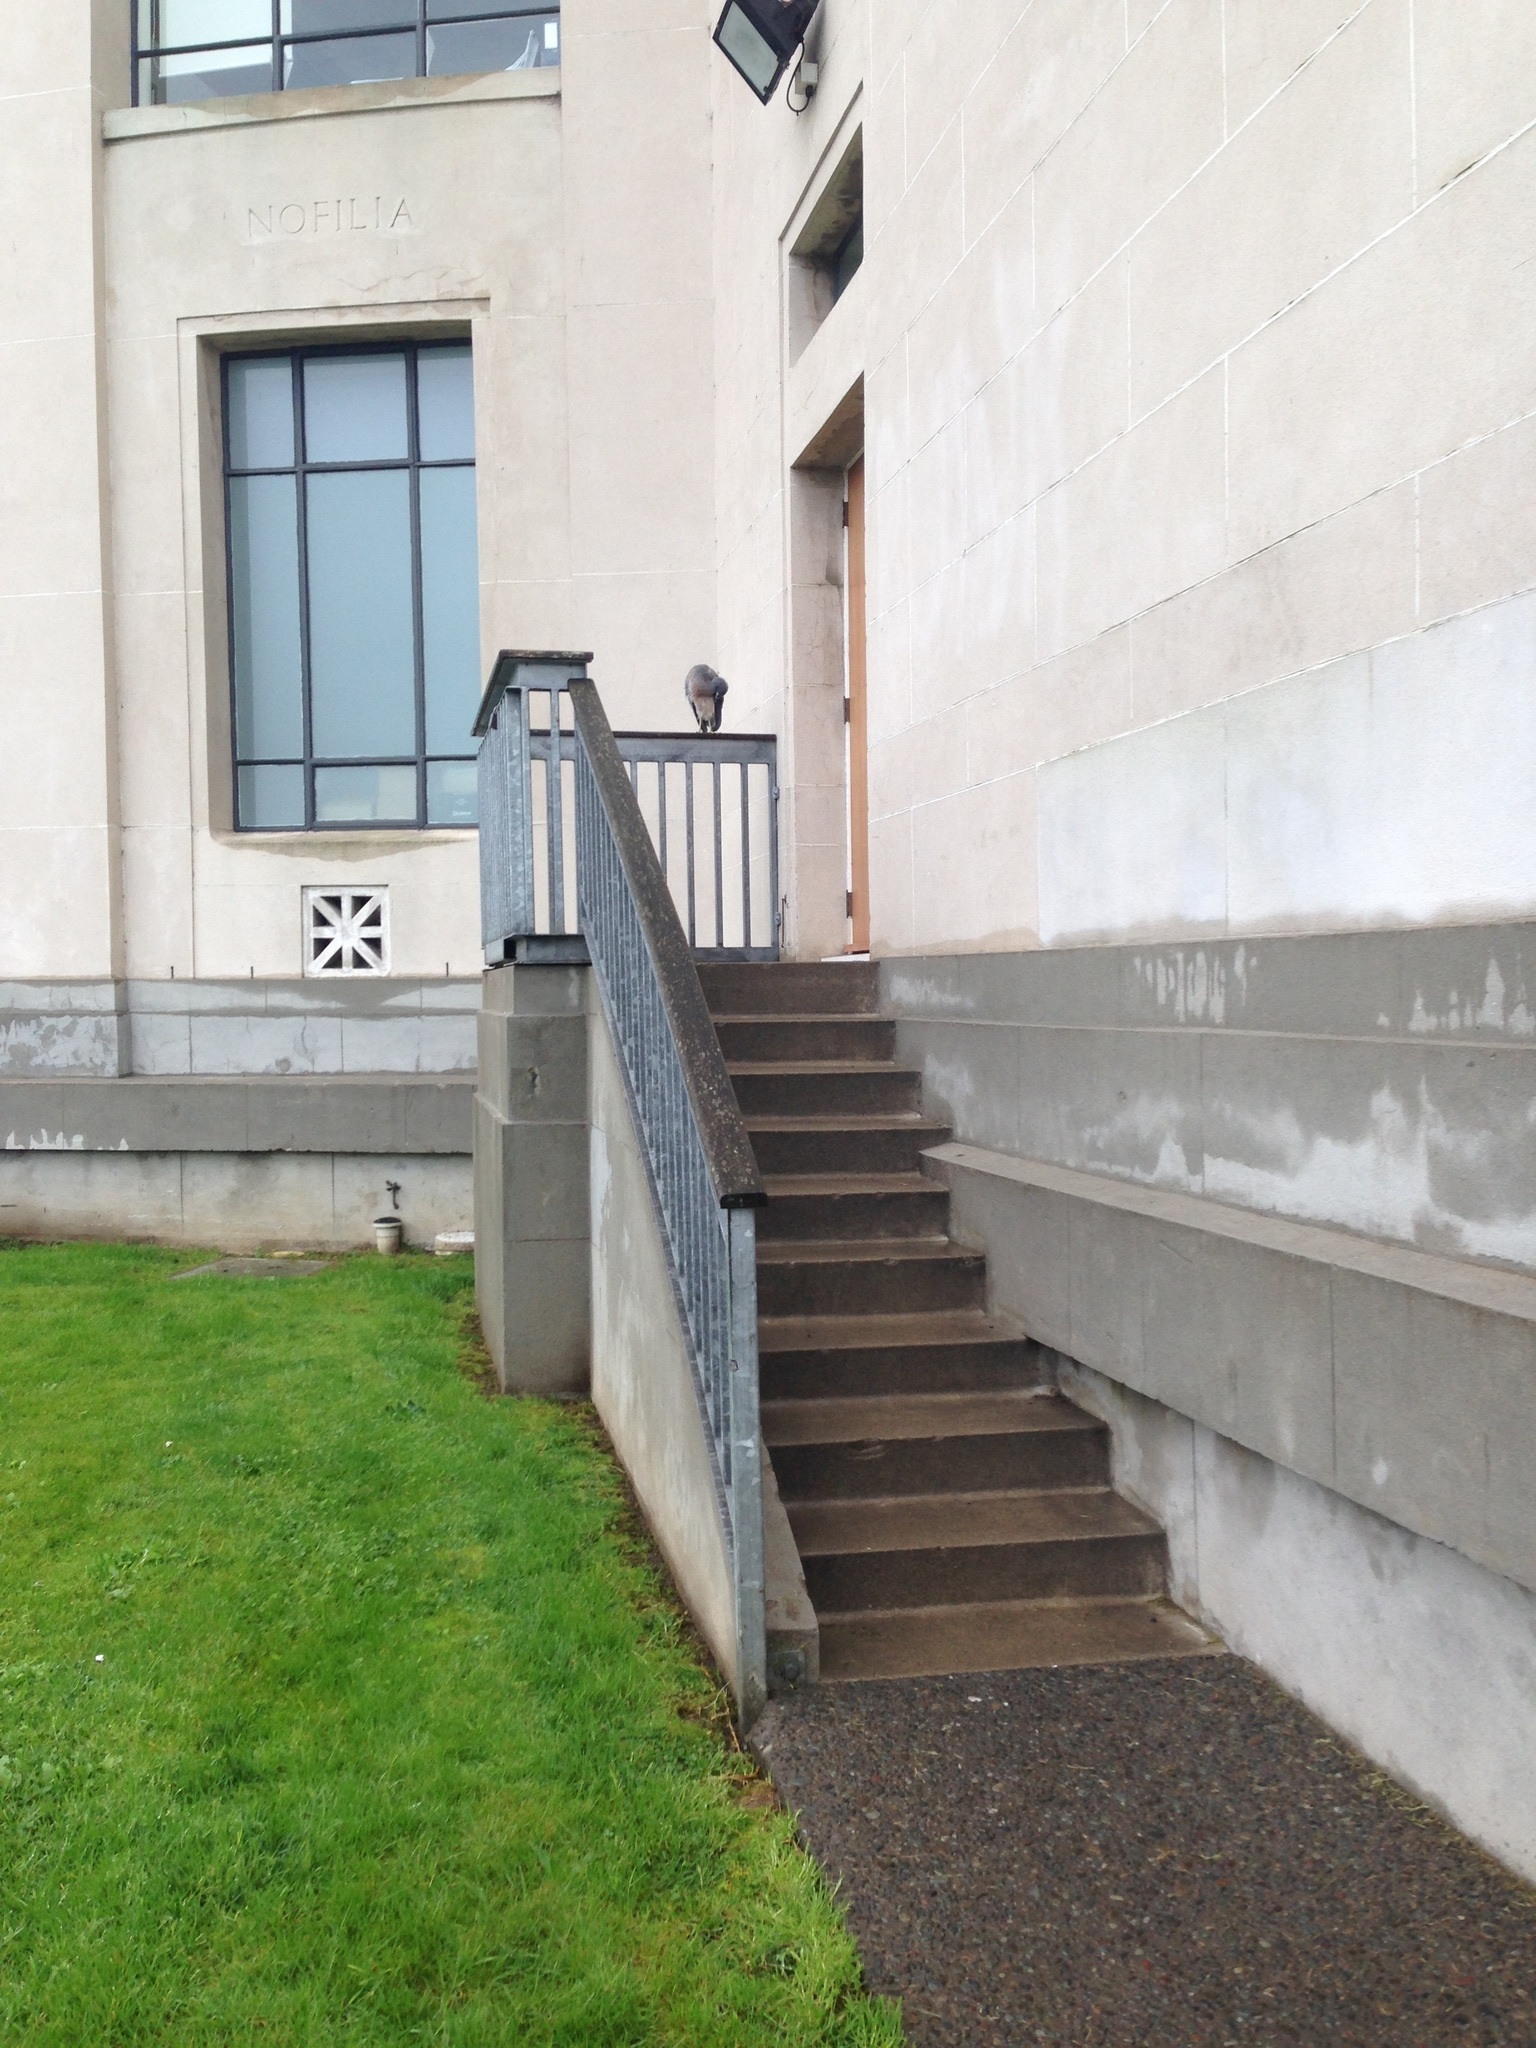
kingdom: Animalia
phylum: Chordata
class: Aves
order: Pelecaniformes
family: Ardeidae
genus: Egretta
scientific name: Egretta novaehollandiae
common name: White-faced heron
